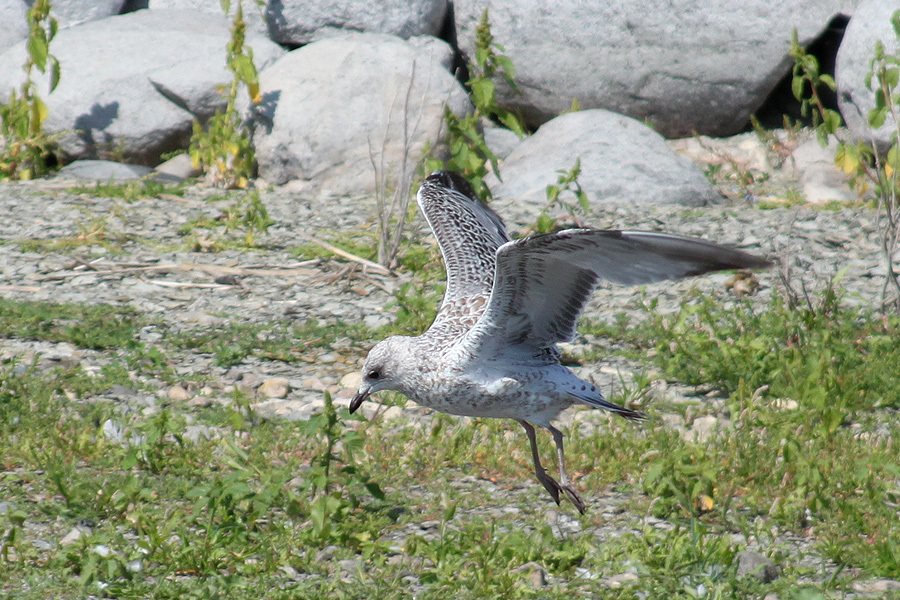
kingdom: Animalia
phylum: Chordata
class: Aves
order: Charadriiformes
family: Laridae
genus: Larus
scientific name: Larus delawarensis
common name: Ring-billed gull
